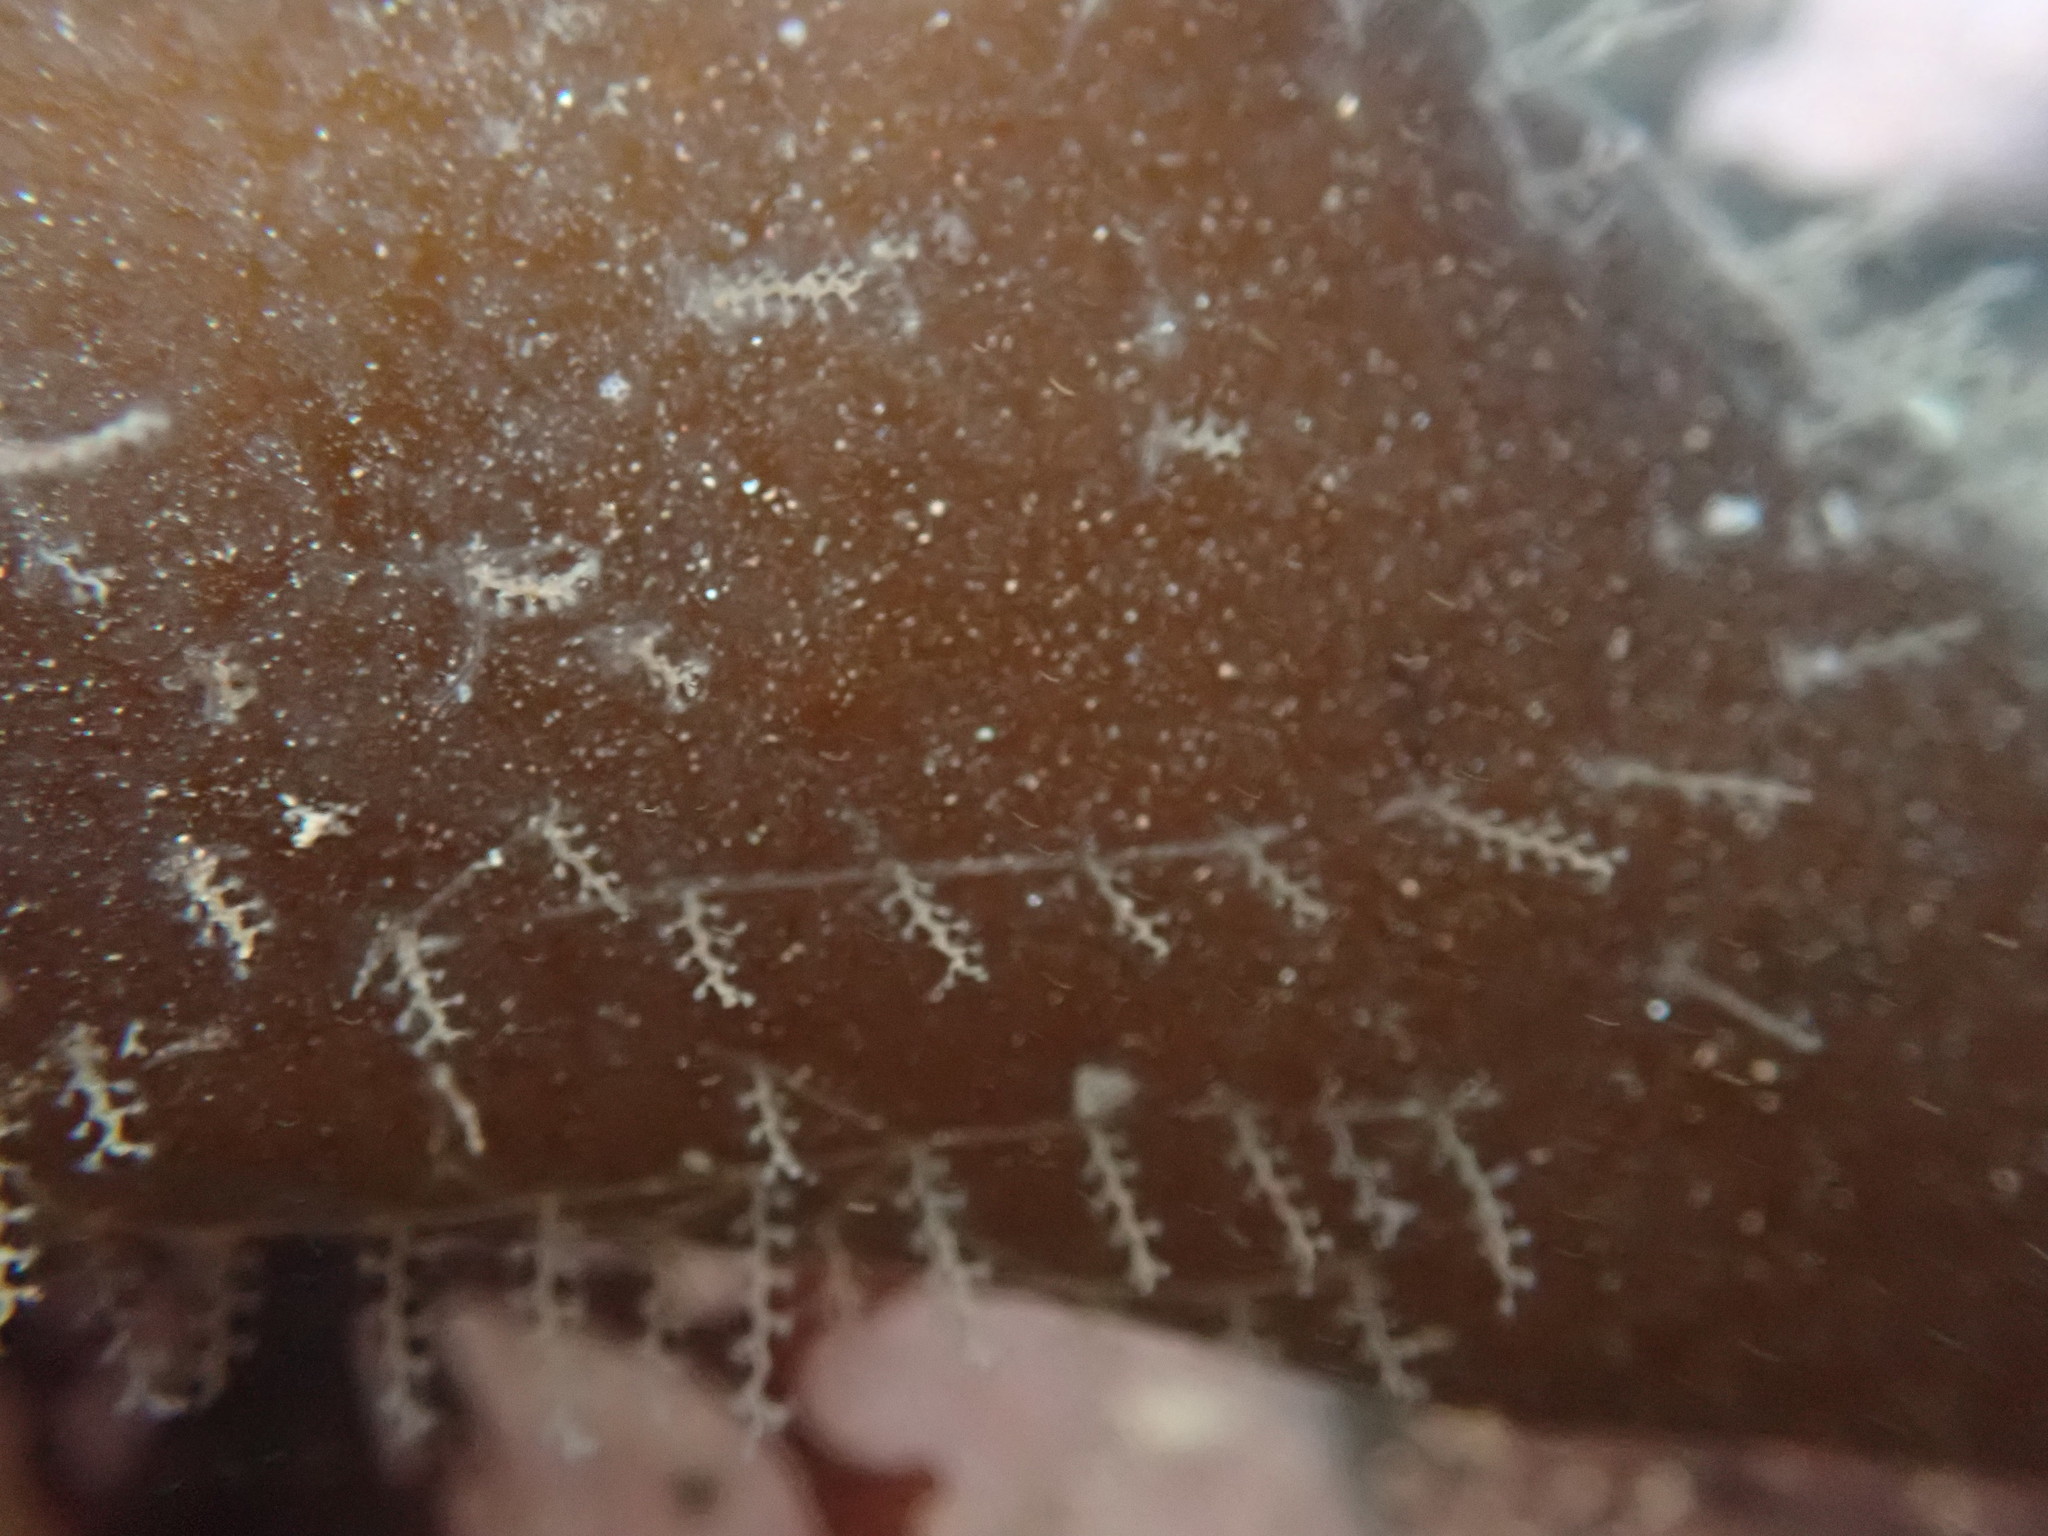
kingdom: Animalia
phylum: Cnidaria
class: Hydrozoa
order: Leptothecata
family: Campanulariidae
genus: Obelia
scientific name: Obelia geniculata
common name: Bell hydroid
